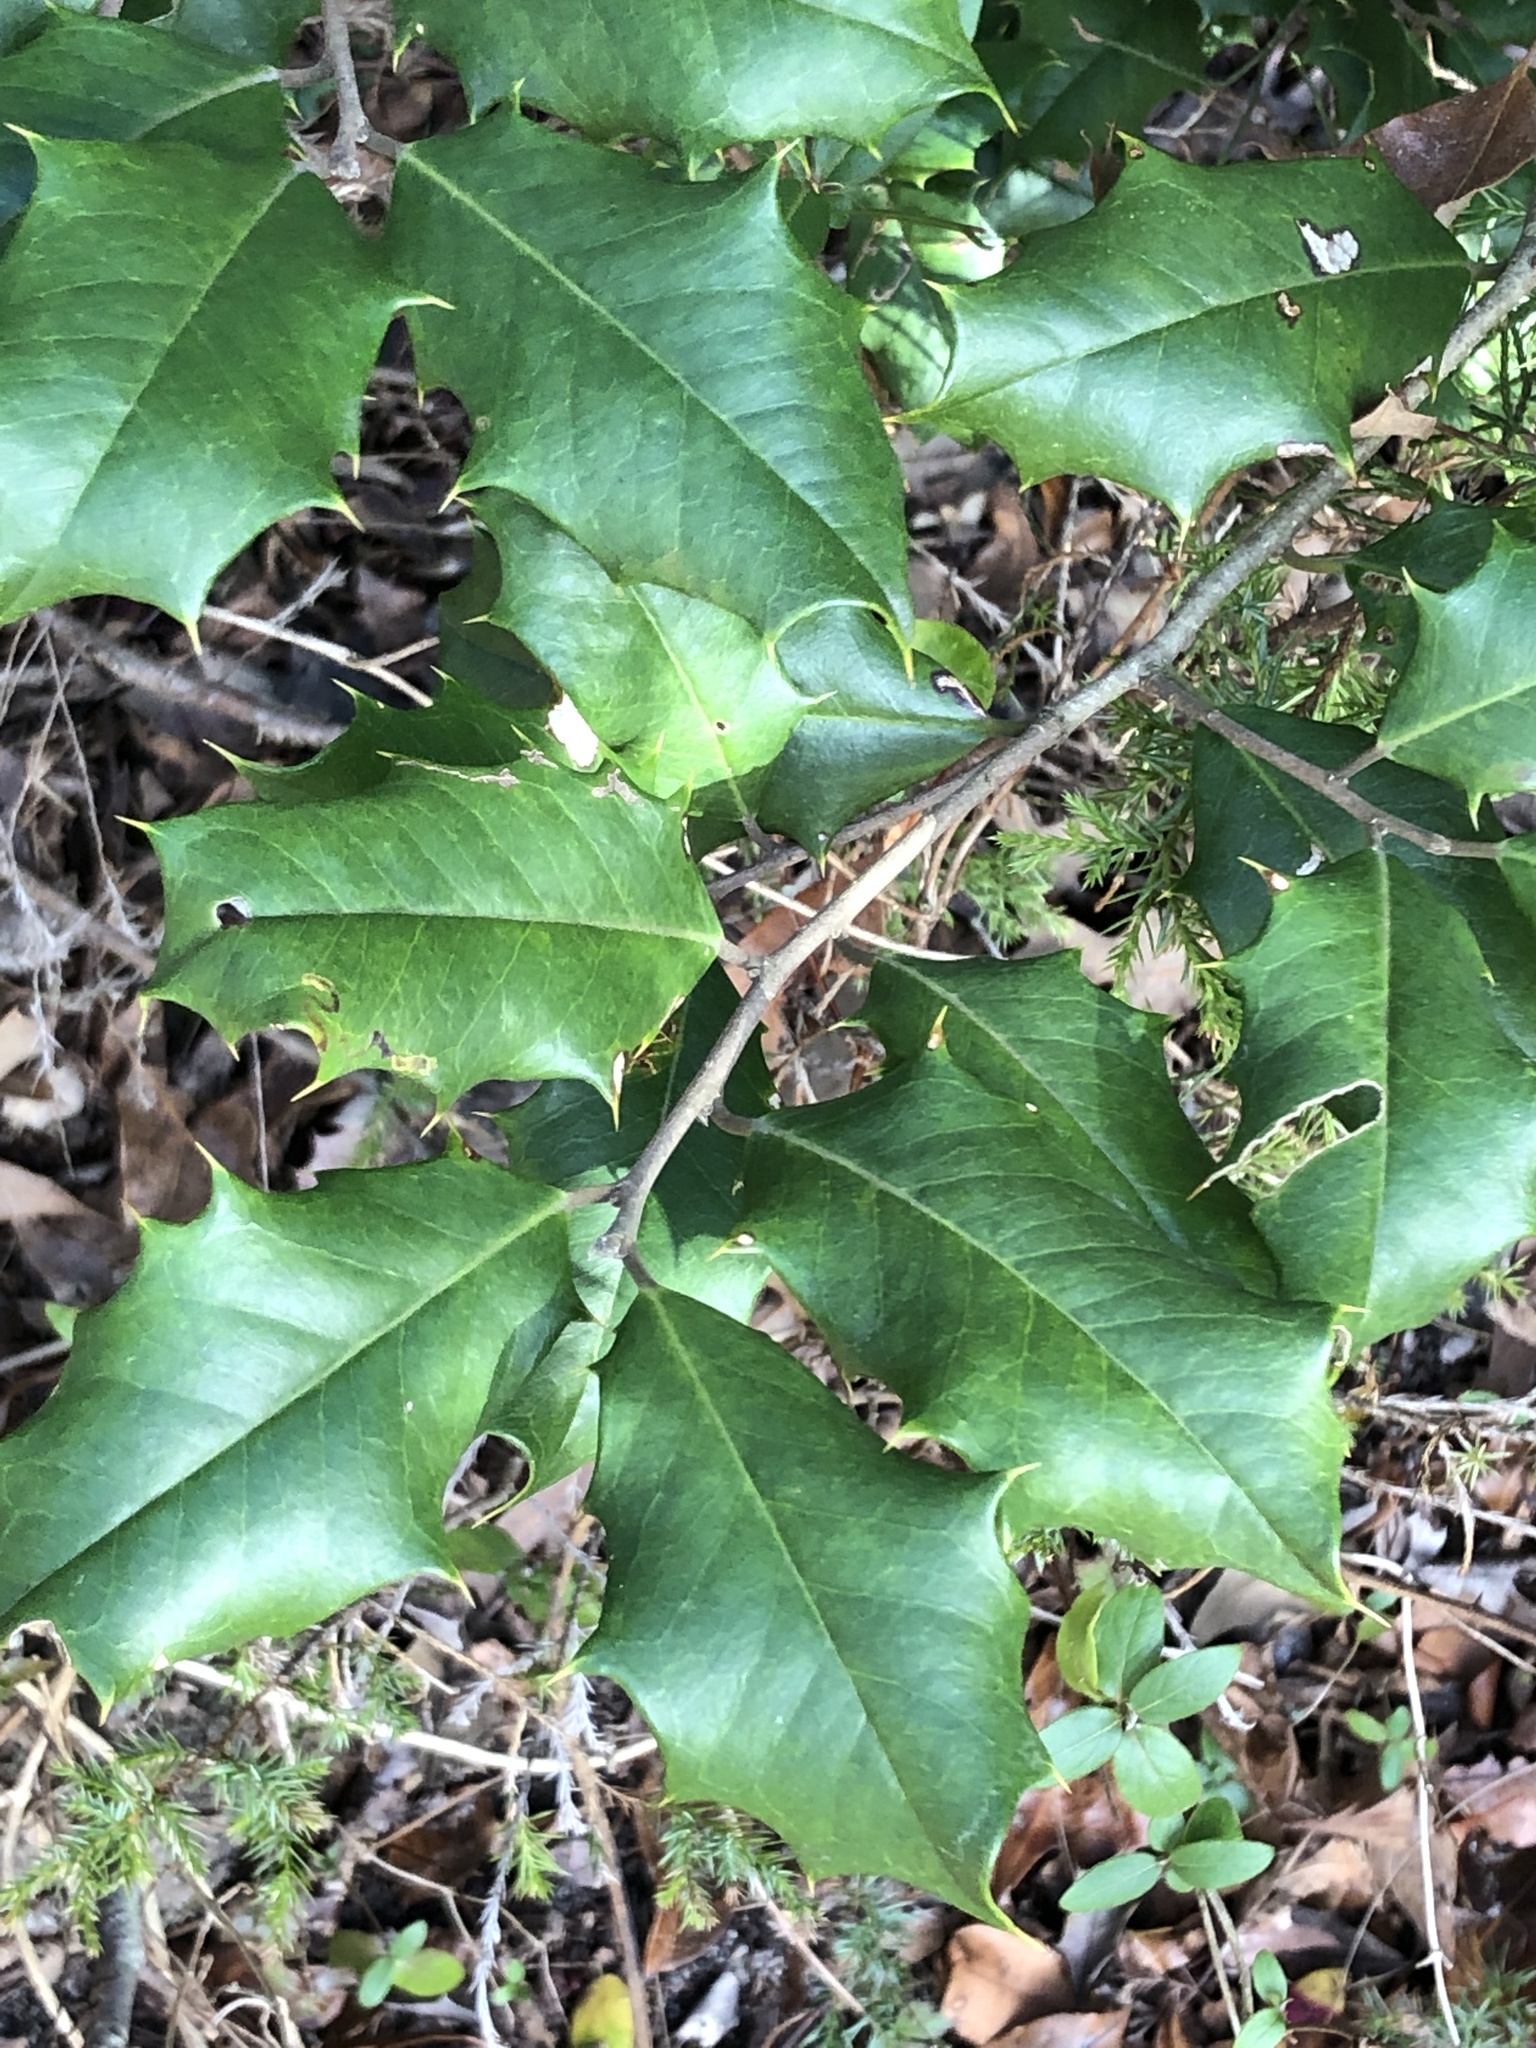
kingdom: Plantae
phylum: Tracheophyta
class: Magnoliopsida
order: Aquifoliales
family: Aquifoliaceae
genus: Ilex
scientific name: Ilex opaca
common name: American holly
